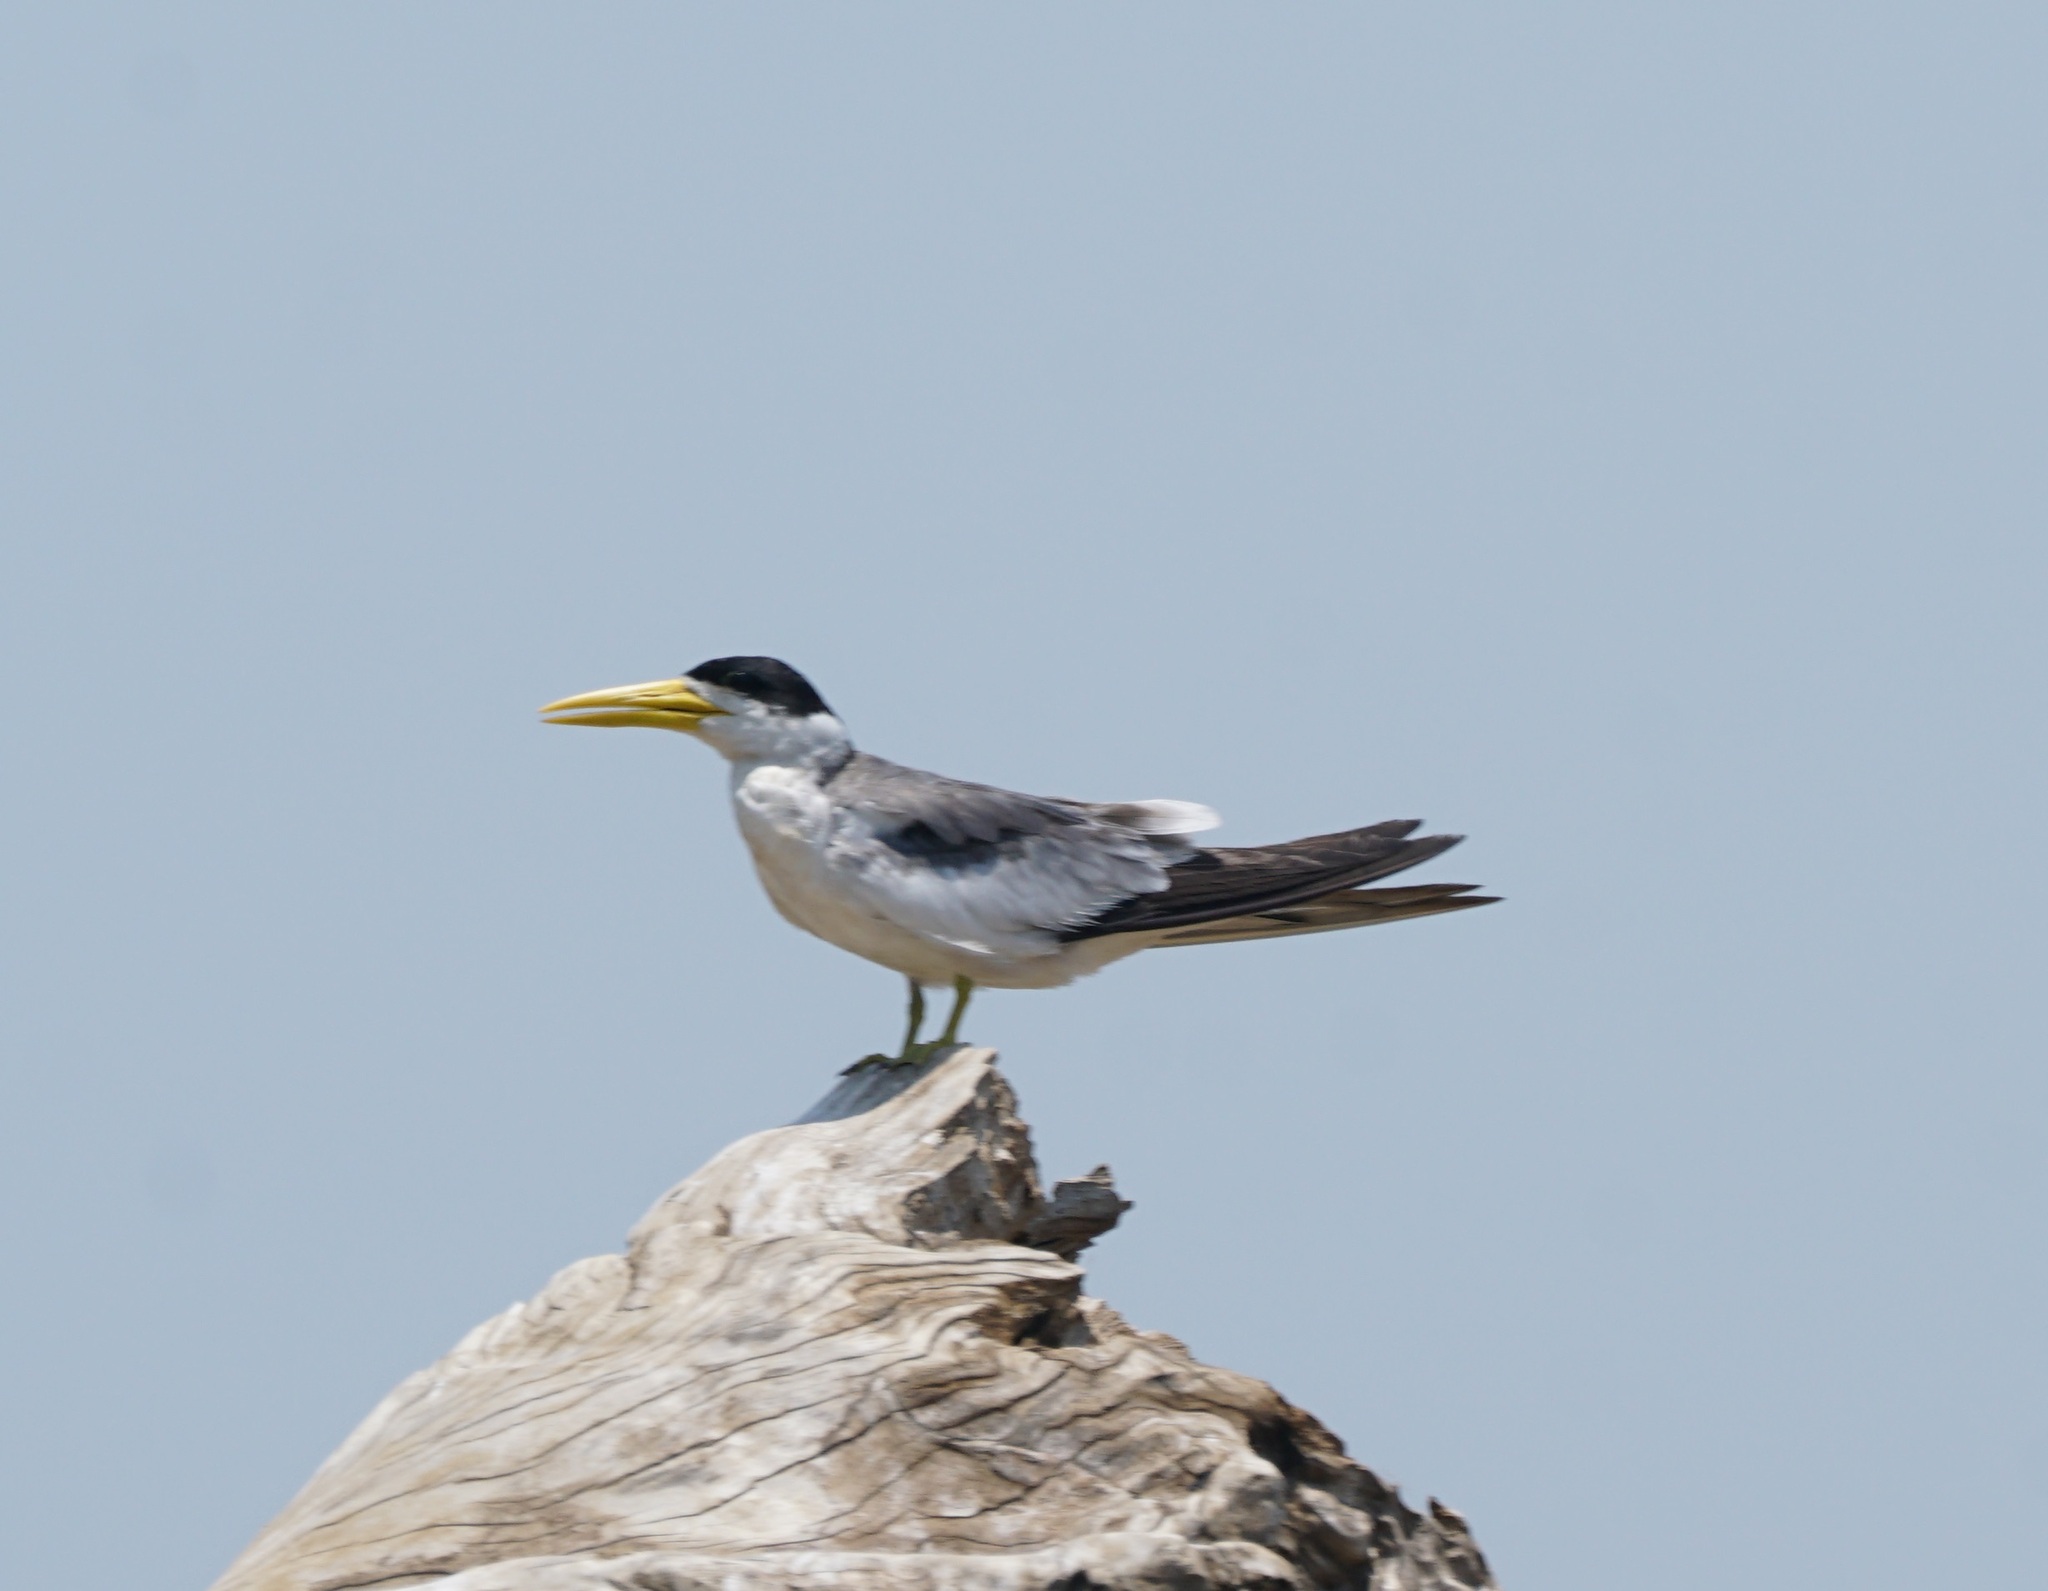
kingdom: Animalia
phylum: Chordata
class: Aves
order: Charadriiformes
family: Laridae
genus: Phaetusa
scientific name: Phaetusa simplex
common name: Large-billed tern
